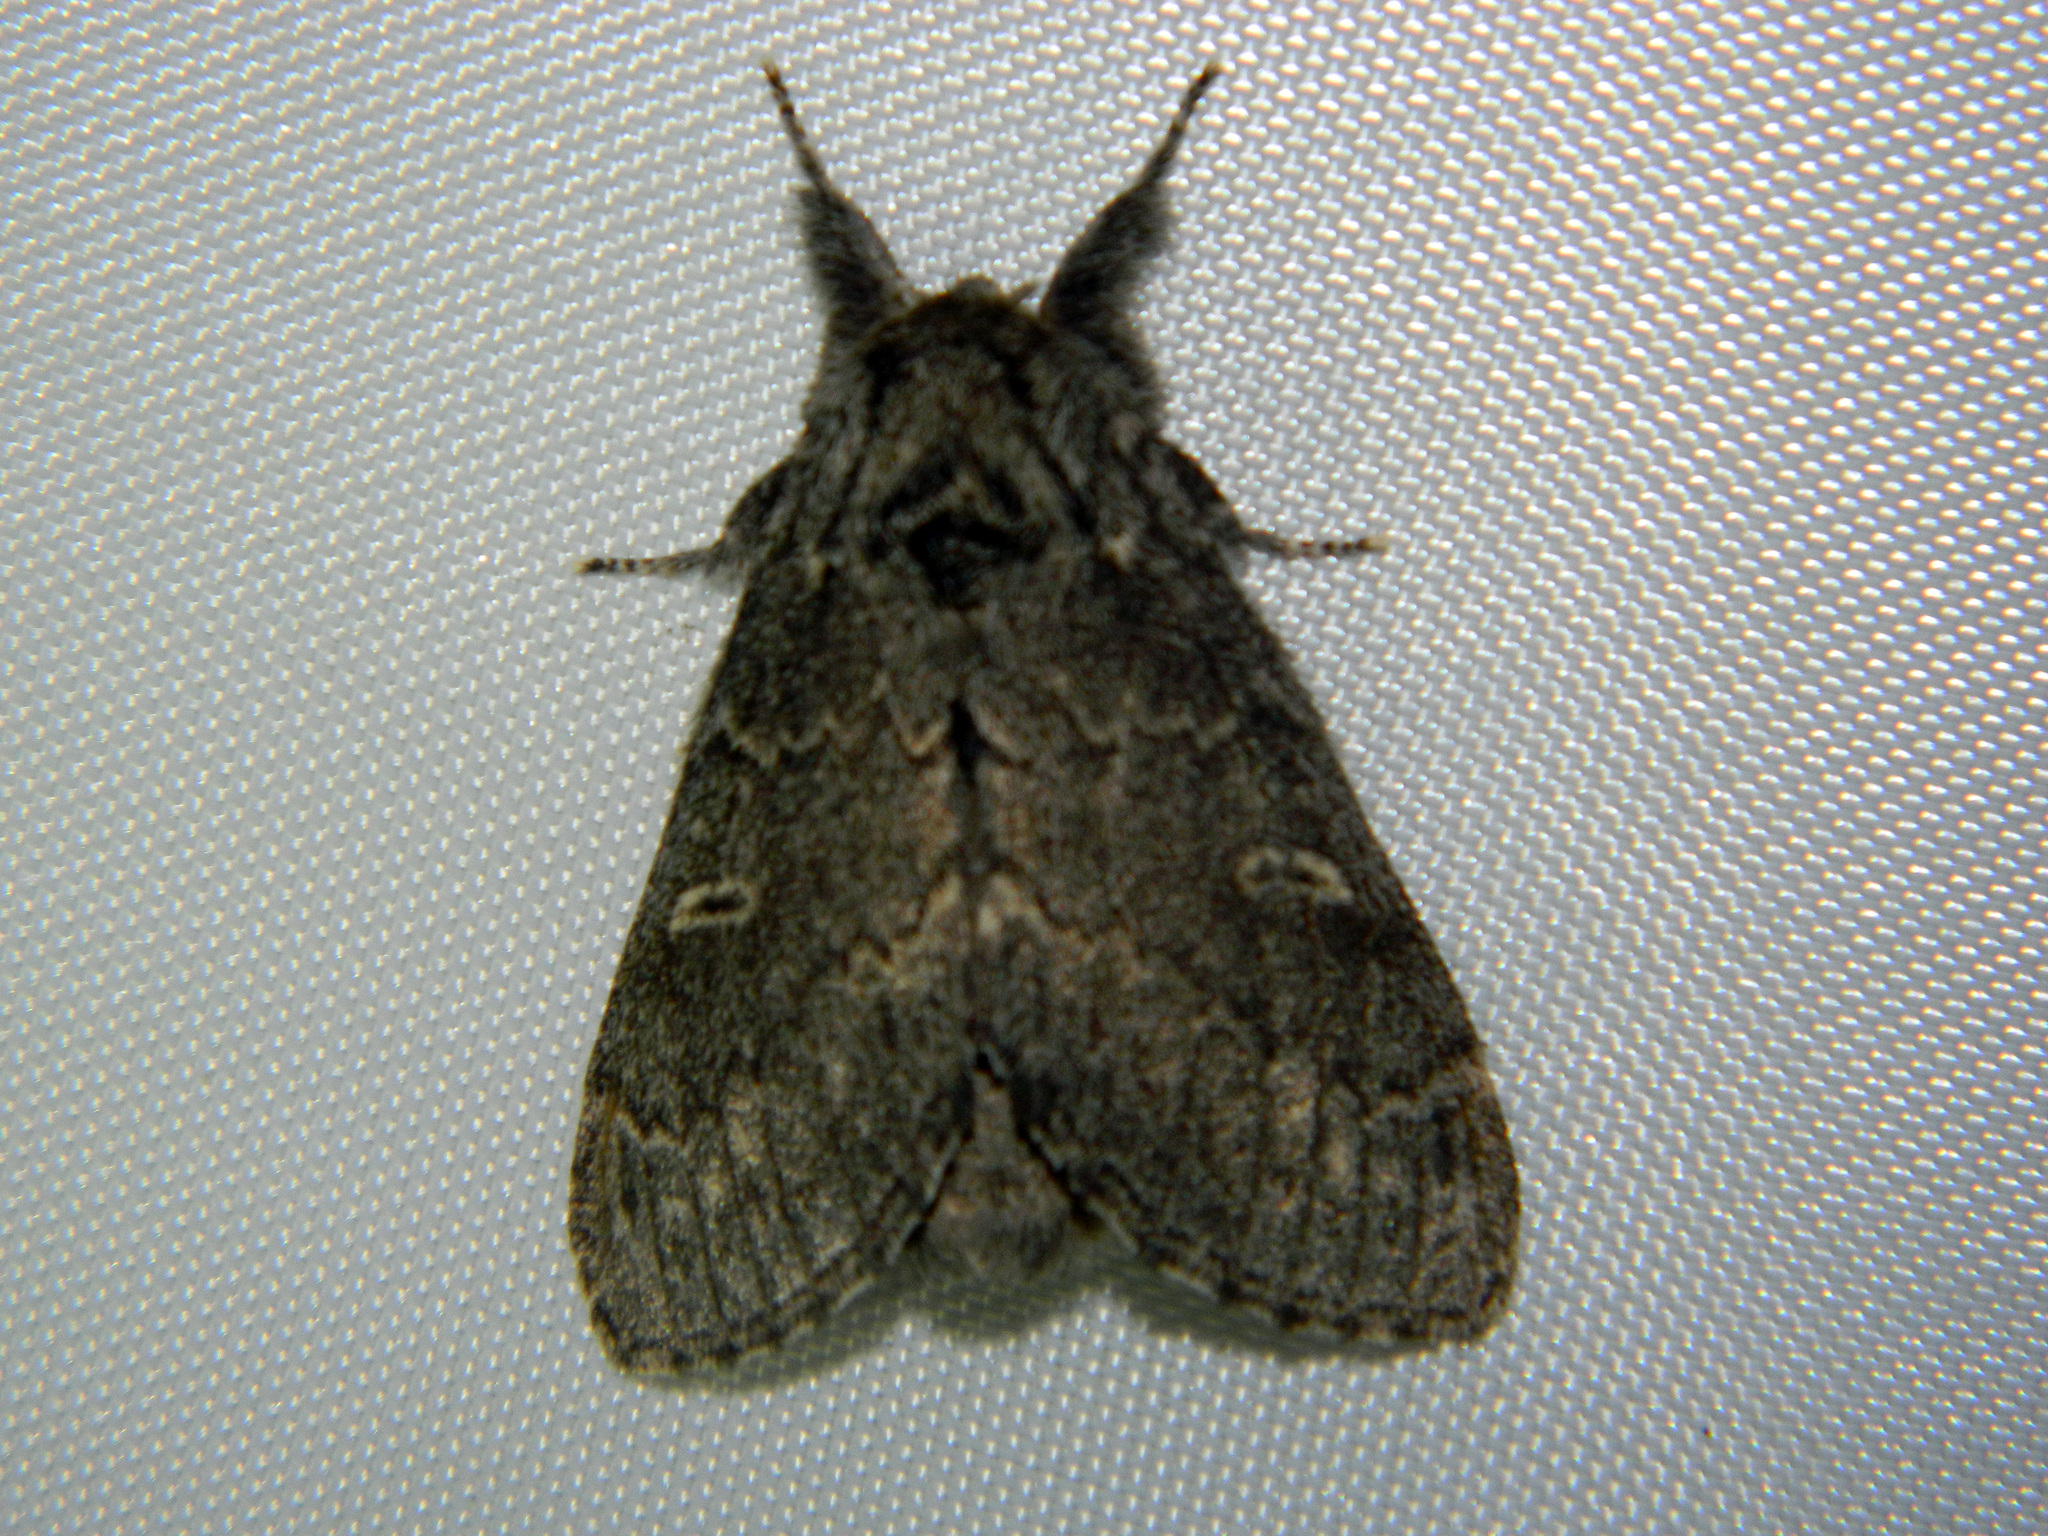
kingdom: Animalia
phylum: Arthropoda
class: Insecta
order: Lepidoptera
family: Notodontidae
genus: Notodonta
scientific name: Notodonta torva
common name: Large dark prominent
